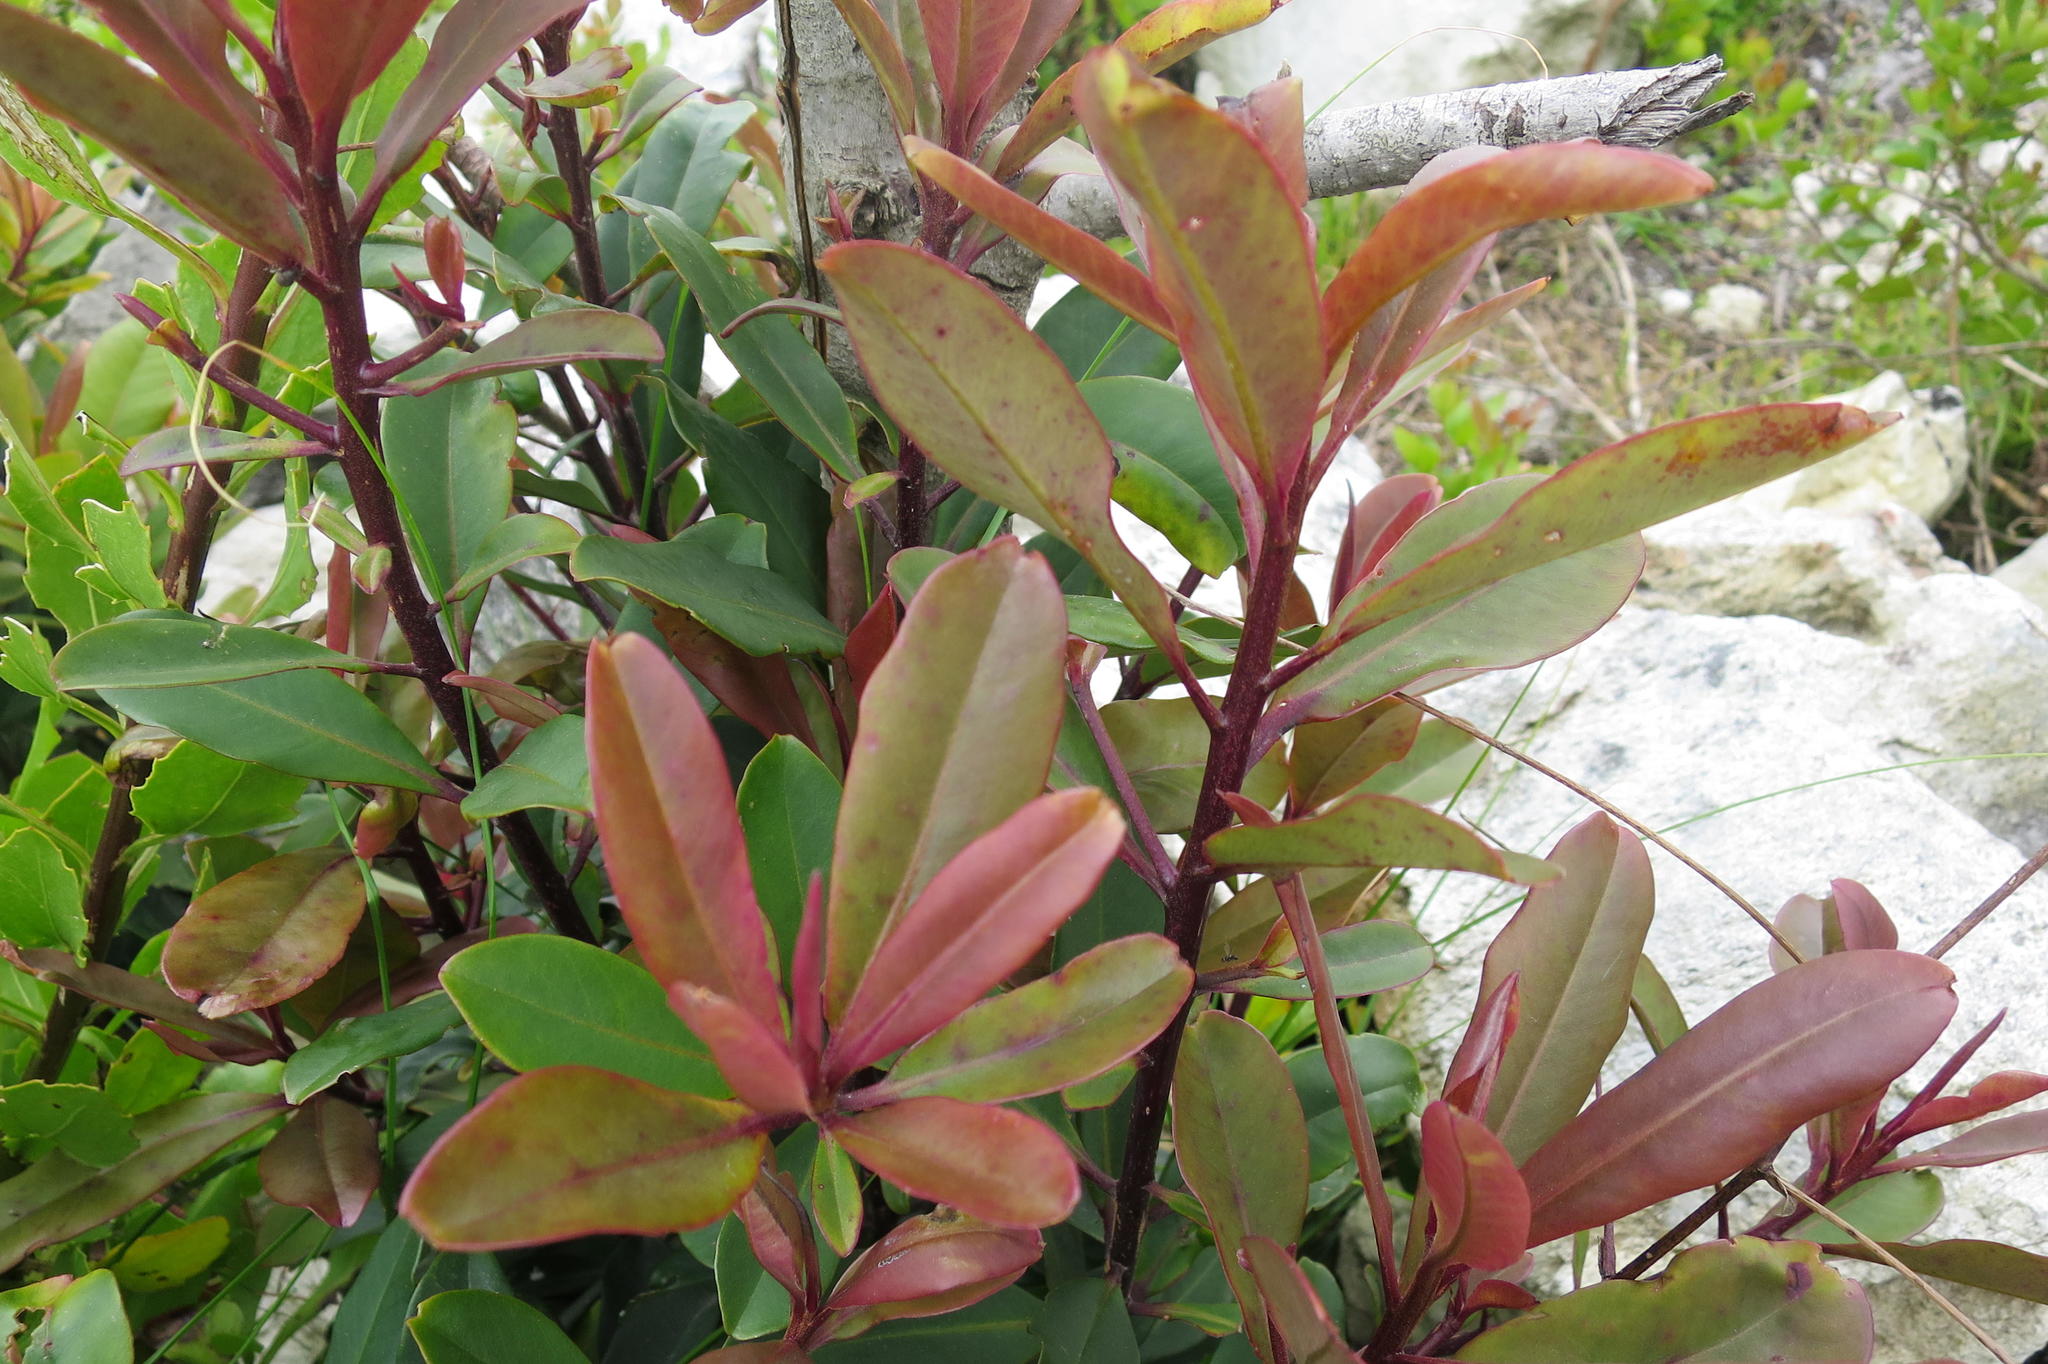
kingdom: Plantae
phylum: Tracheophyta
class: Magnoliopsida
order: Ericales
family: Primulaceae
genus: Myrsine
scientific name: Myrsine melanophloeos
